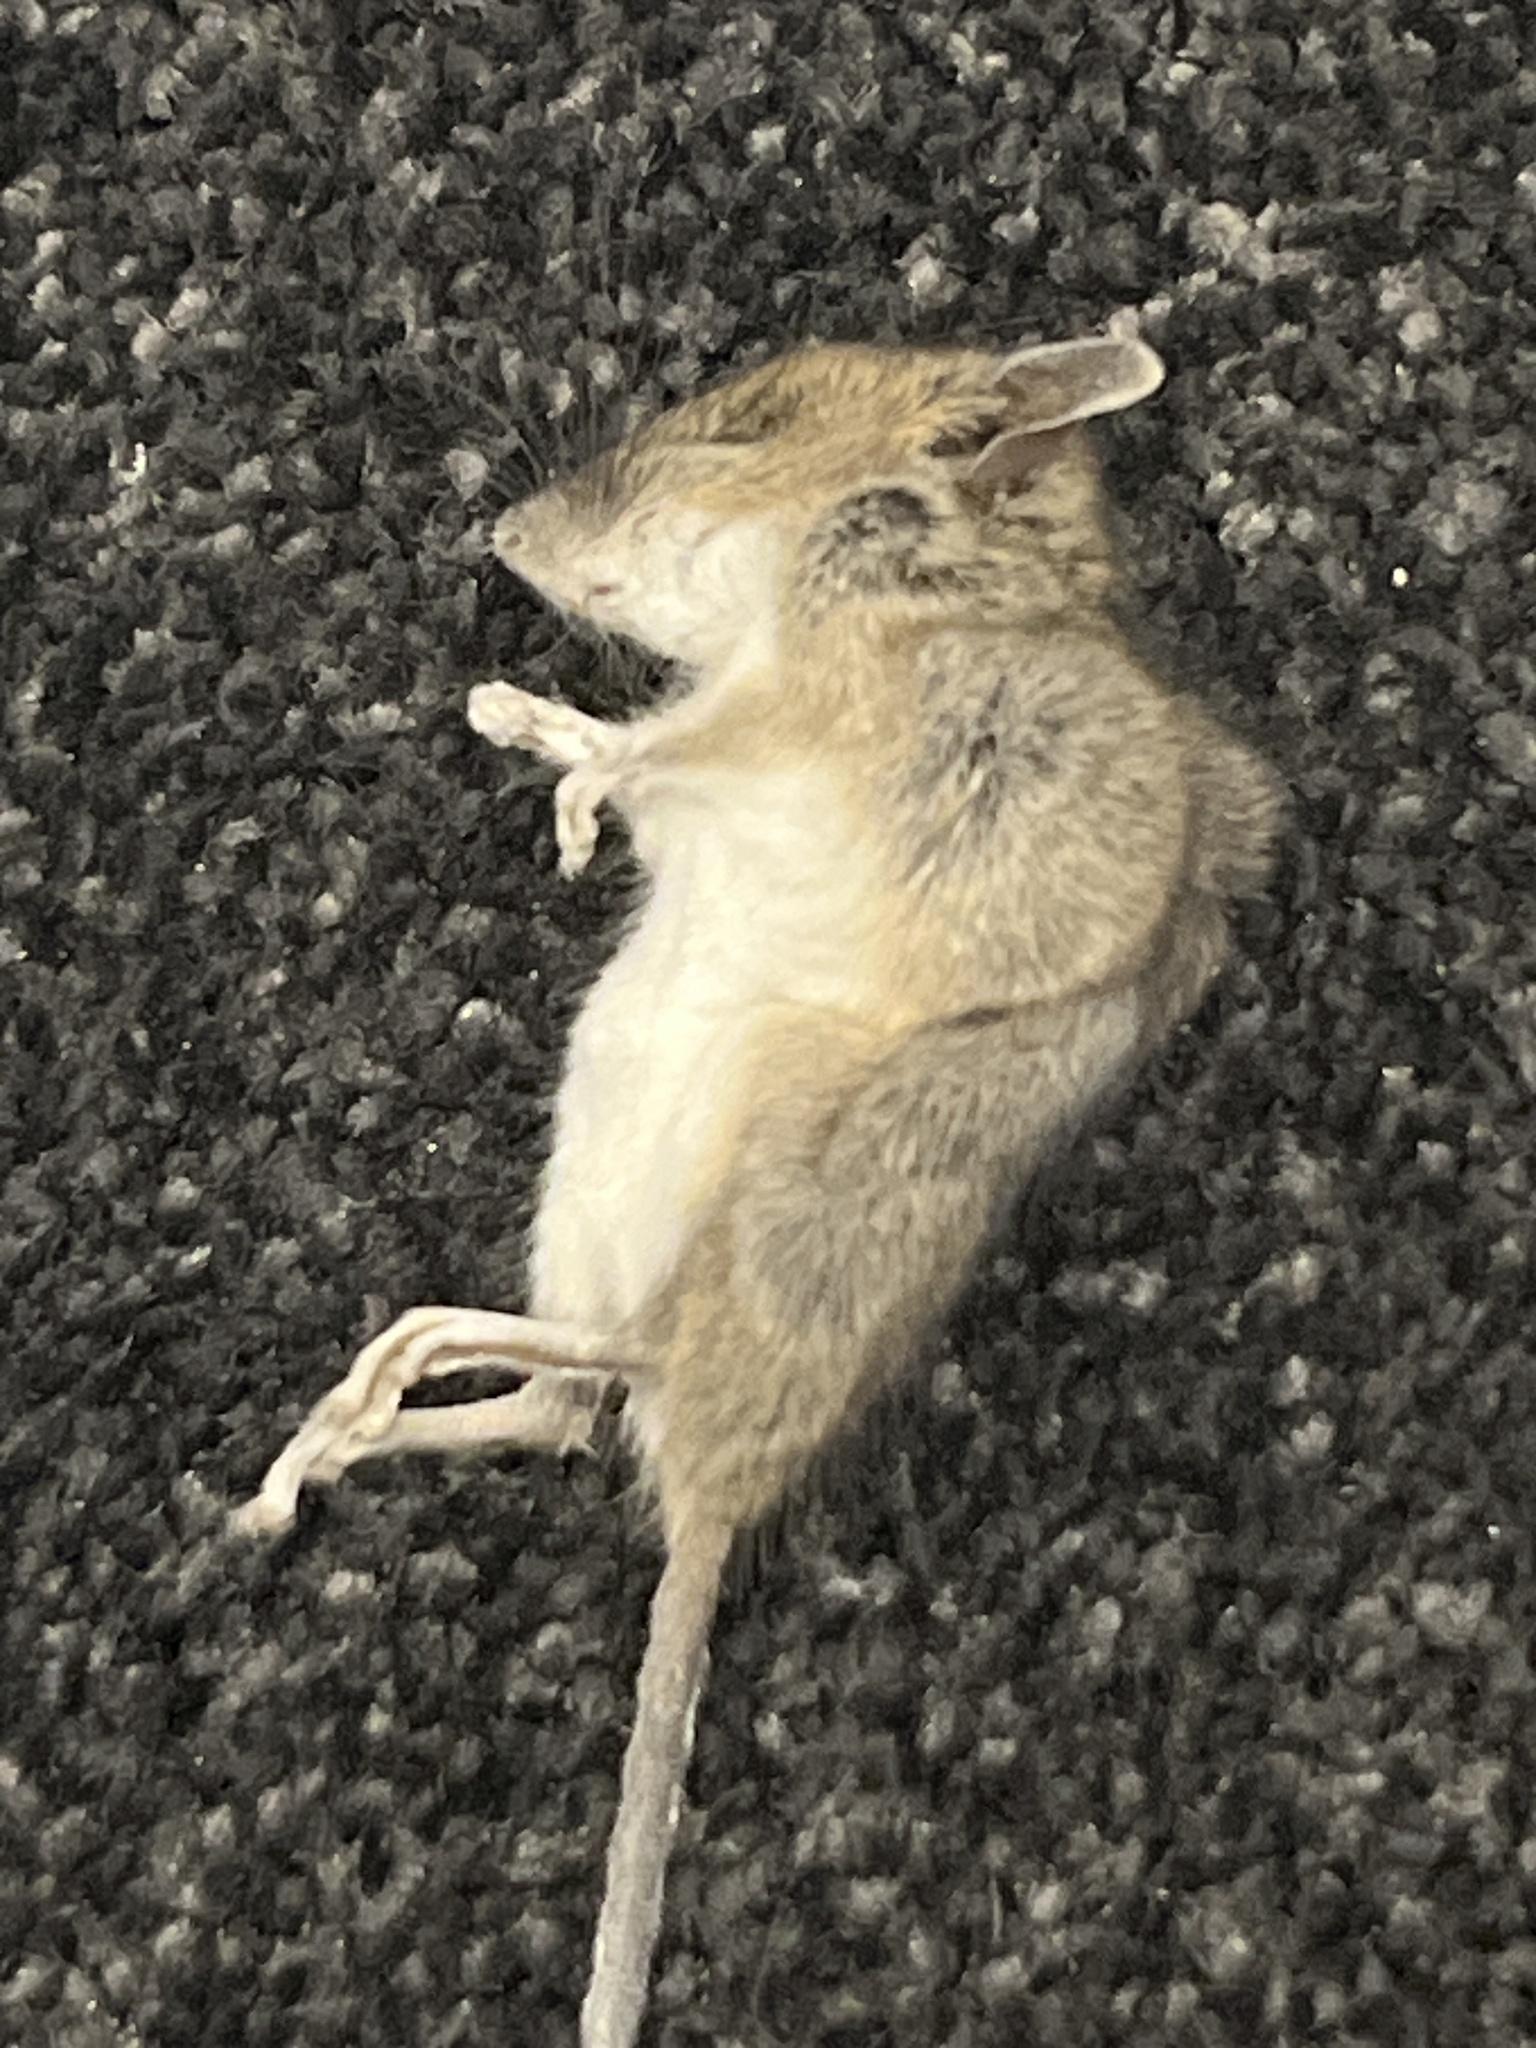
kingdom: Animalia
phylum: Chordata
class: Mammalia
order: Rodentia
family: Muridae
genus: Mus
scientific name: Mus musculus
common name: House mouse
